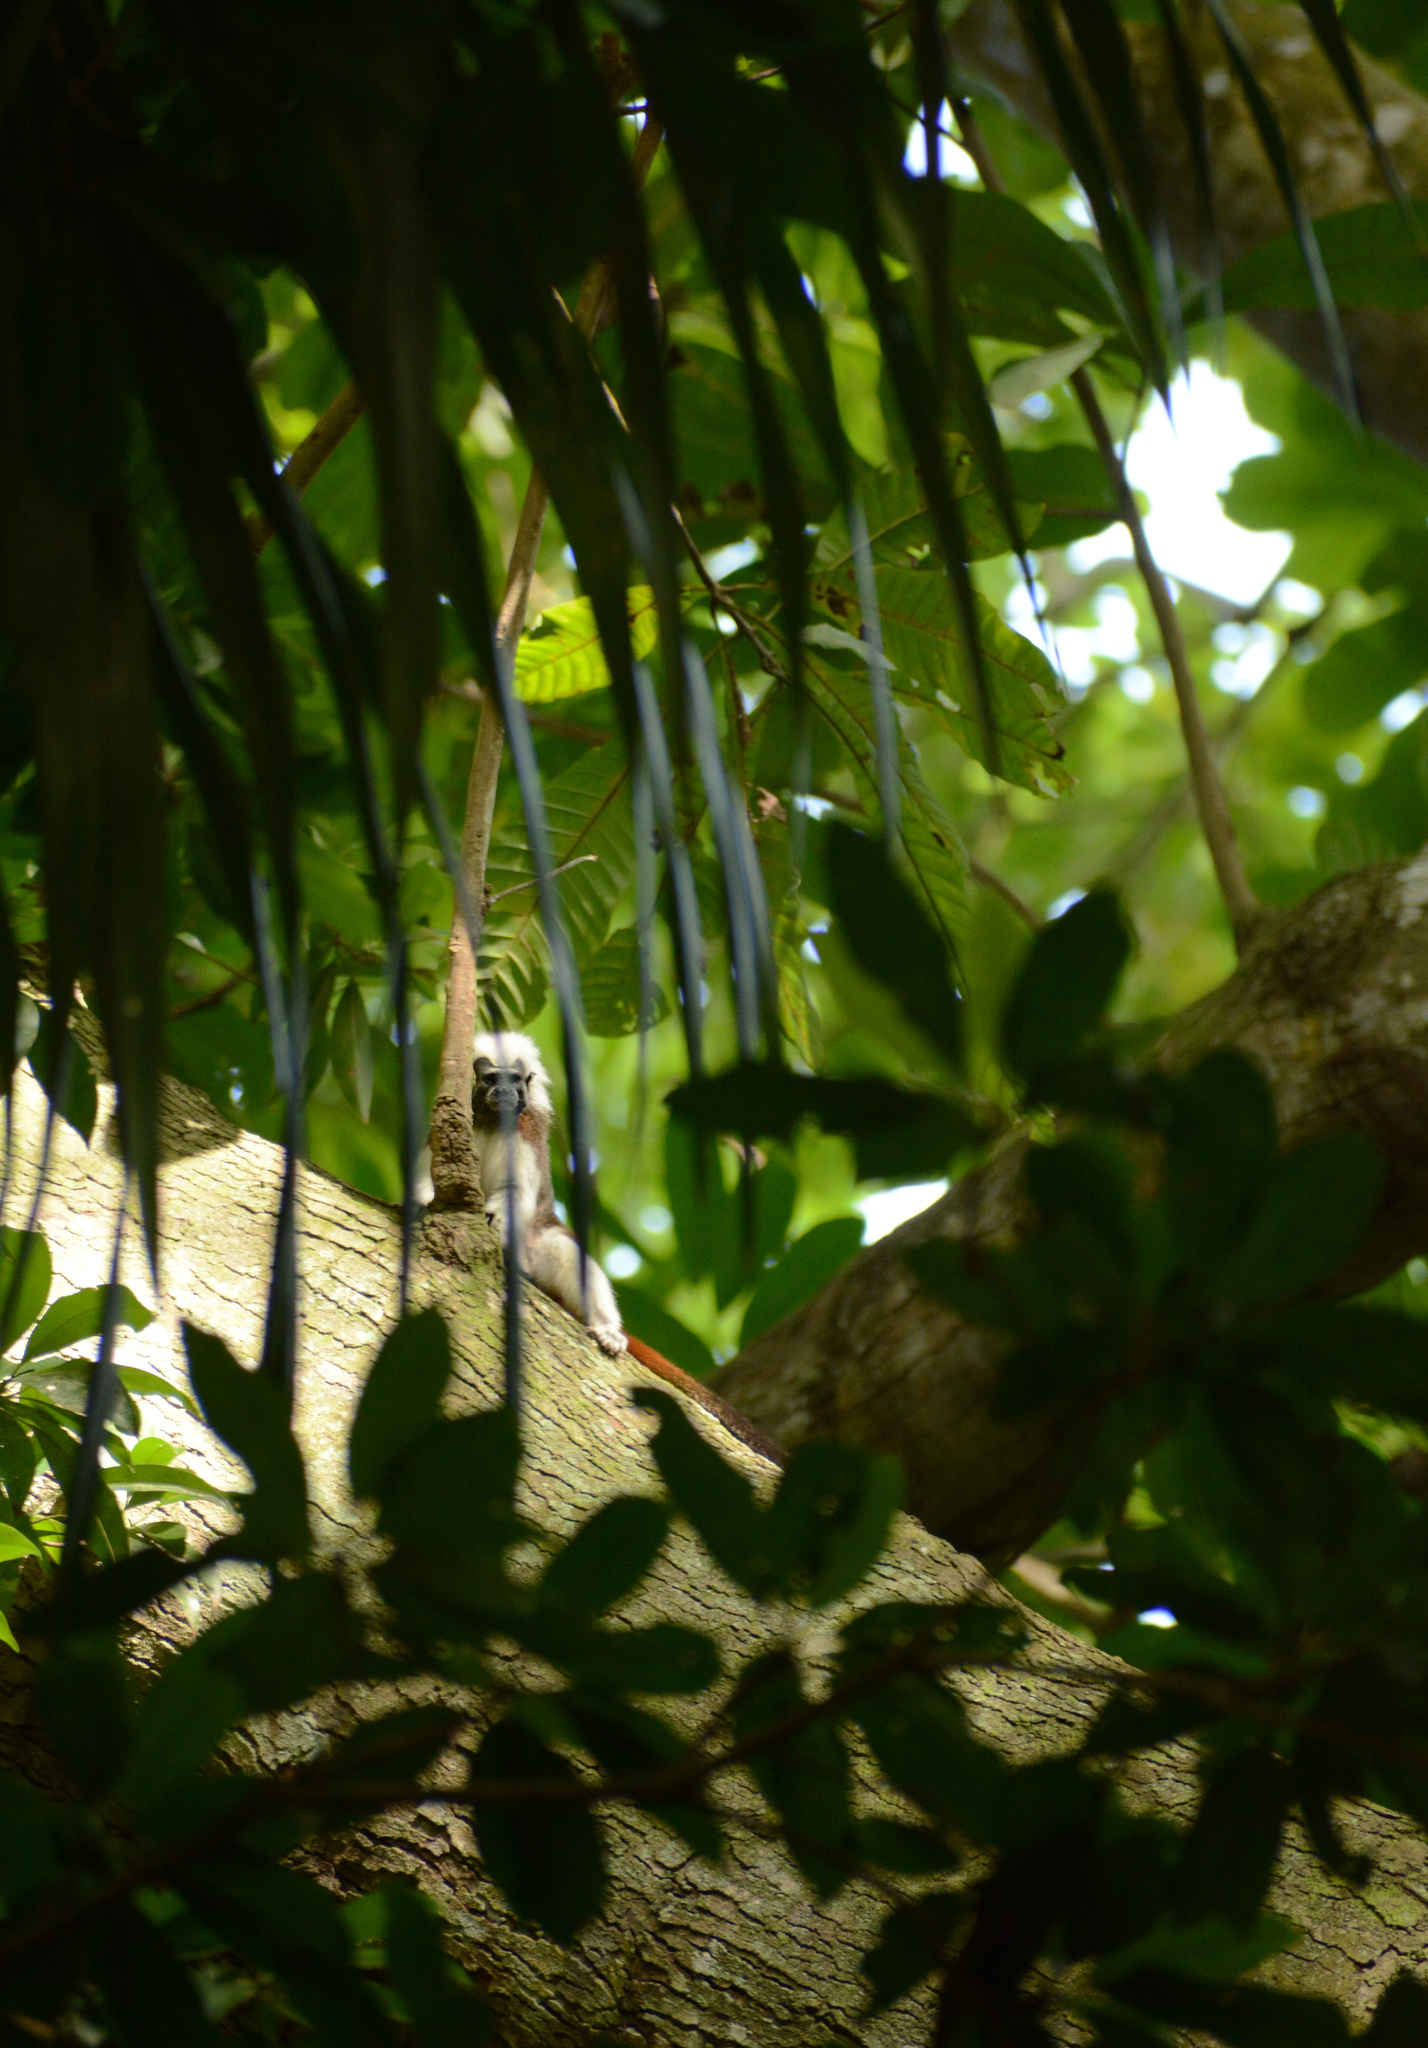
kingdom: Animalia
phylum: Chordata
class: Mammalia
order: Primates
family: Callitrichidae
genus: Saguinus
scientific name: Saguinus oedipus
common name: Cottontop tamarin
